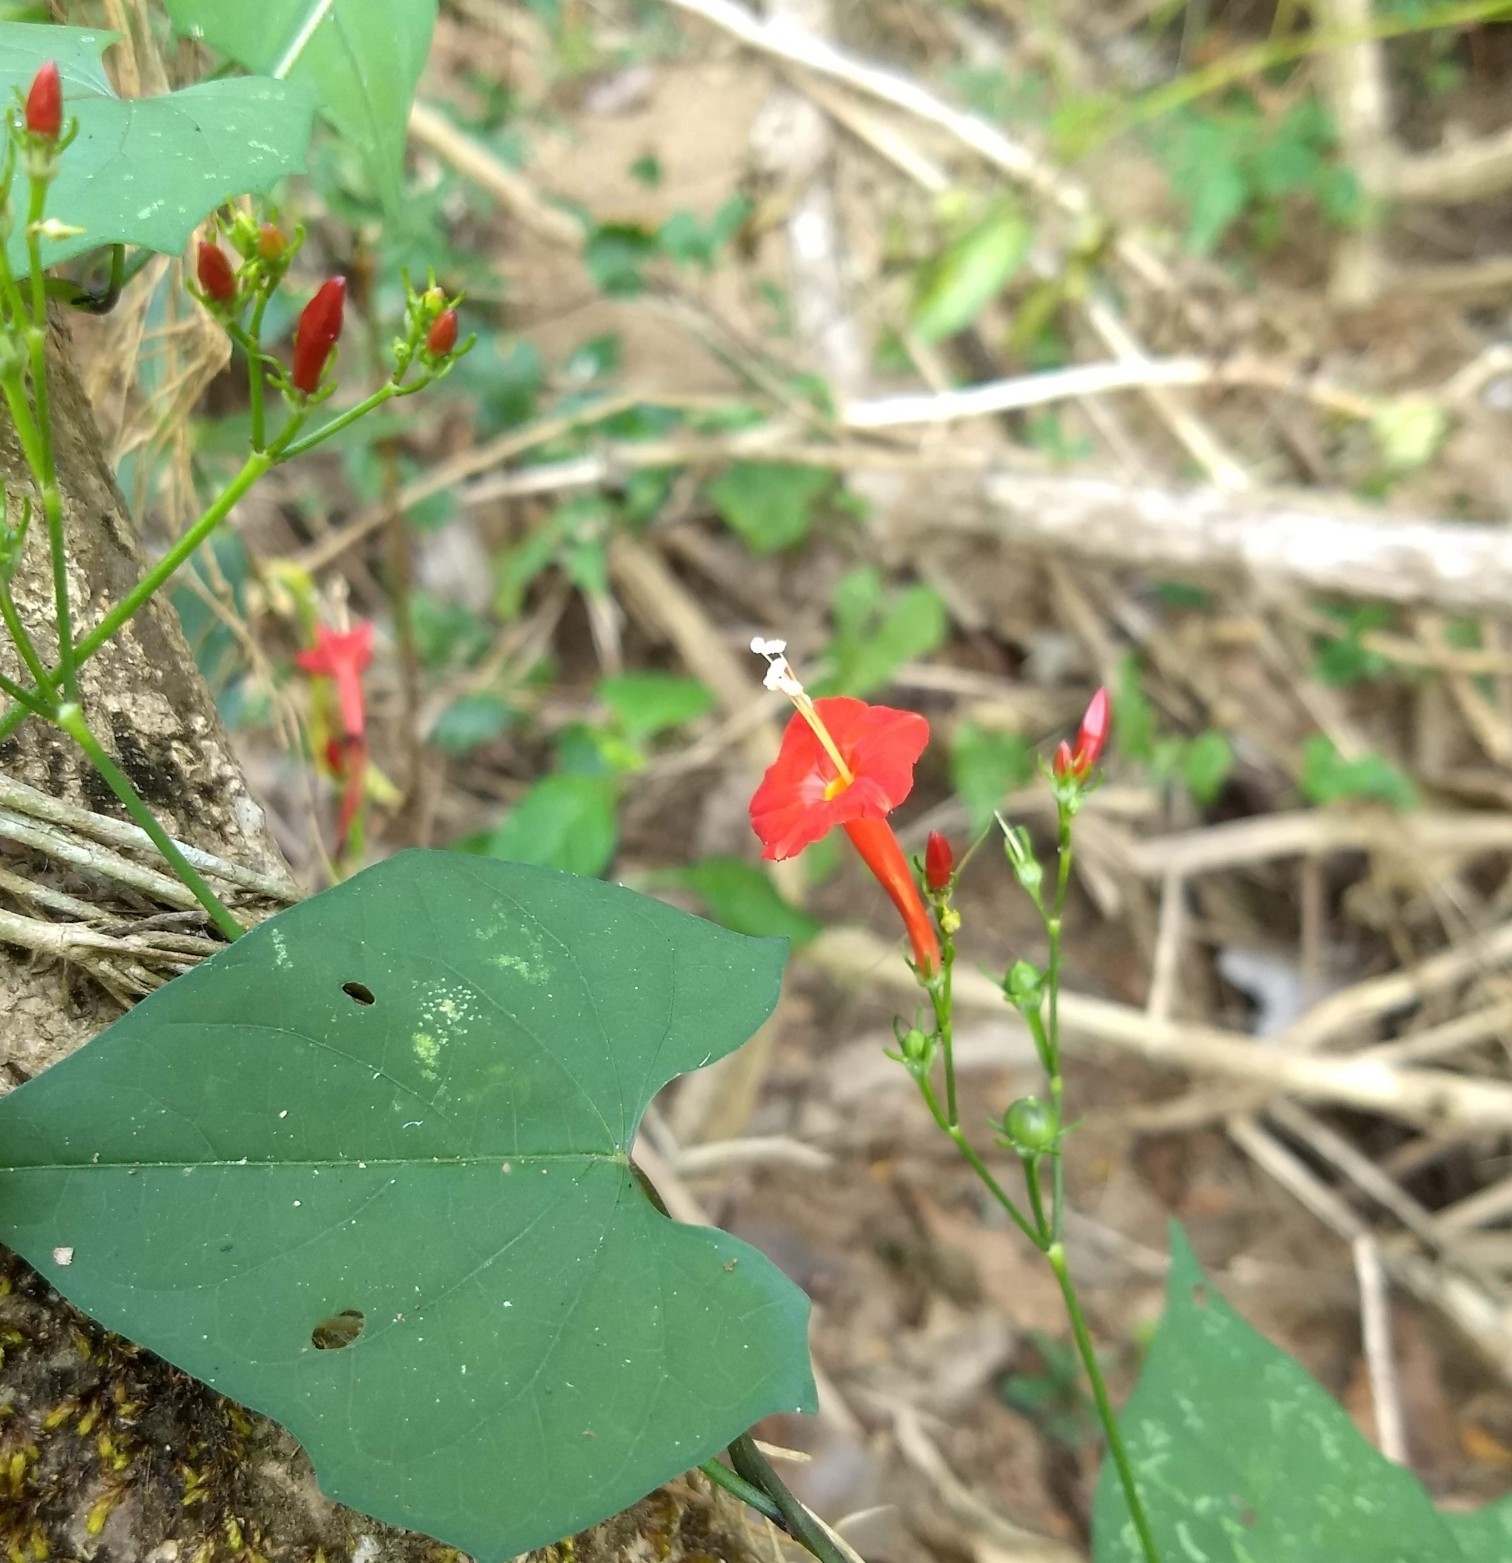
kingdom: Plantae
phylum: Tracheophyta
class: Magnoliopsida
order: Solanales
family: Convolvulaceae
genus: Ipomoea
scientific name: Ipomoea hederifolia
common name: Ivy-leaf morning-glory
